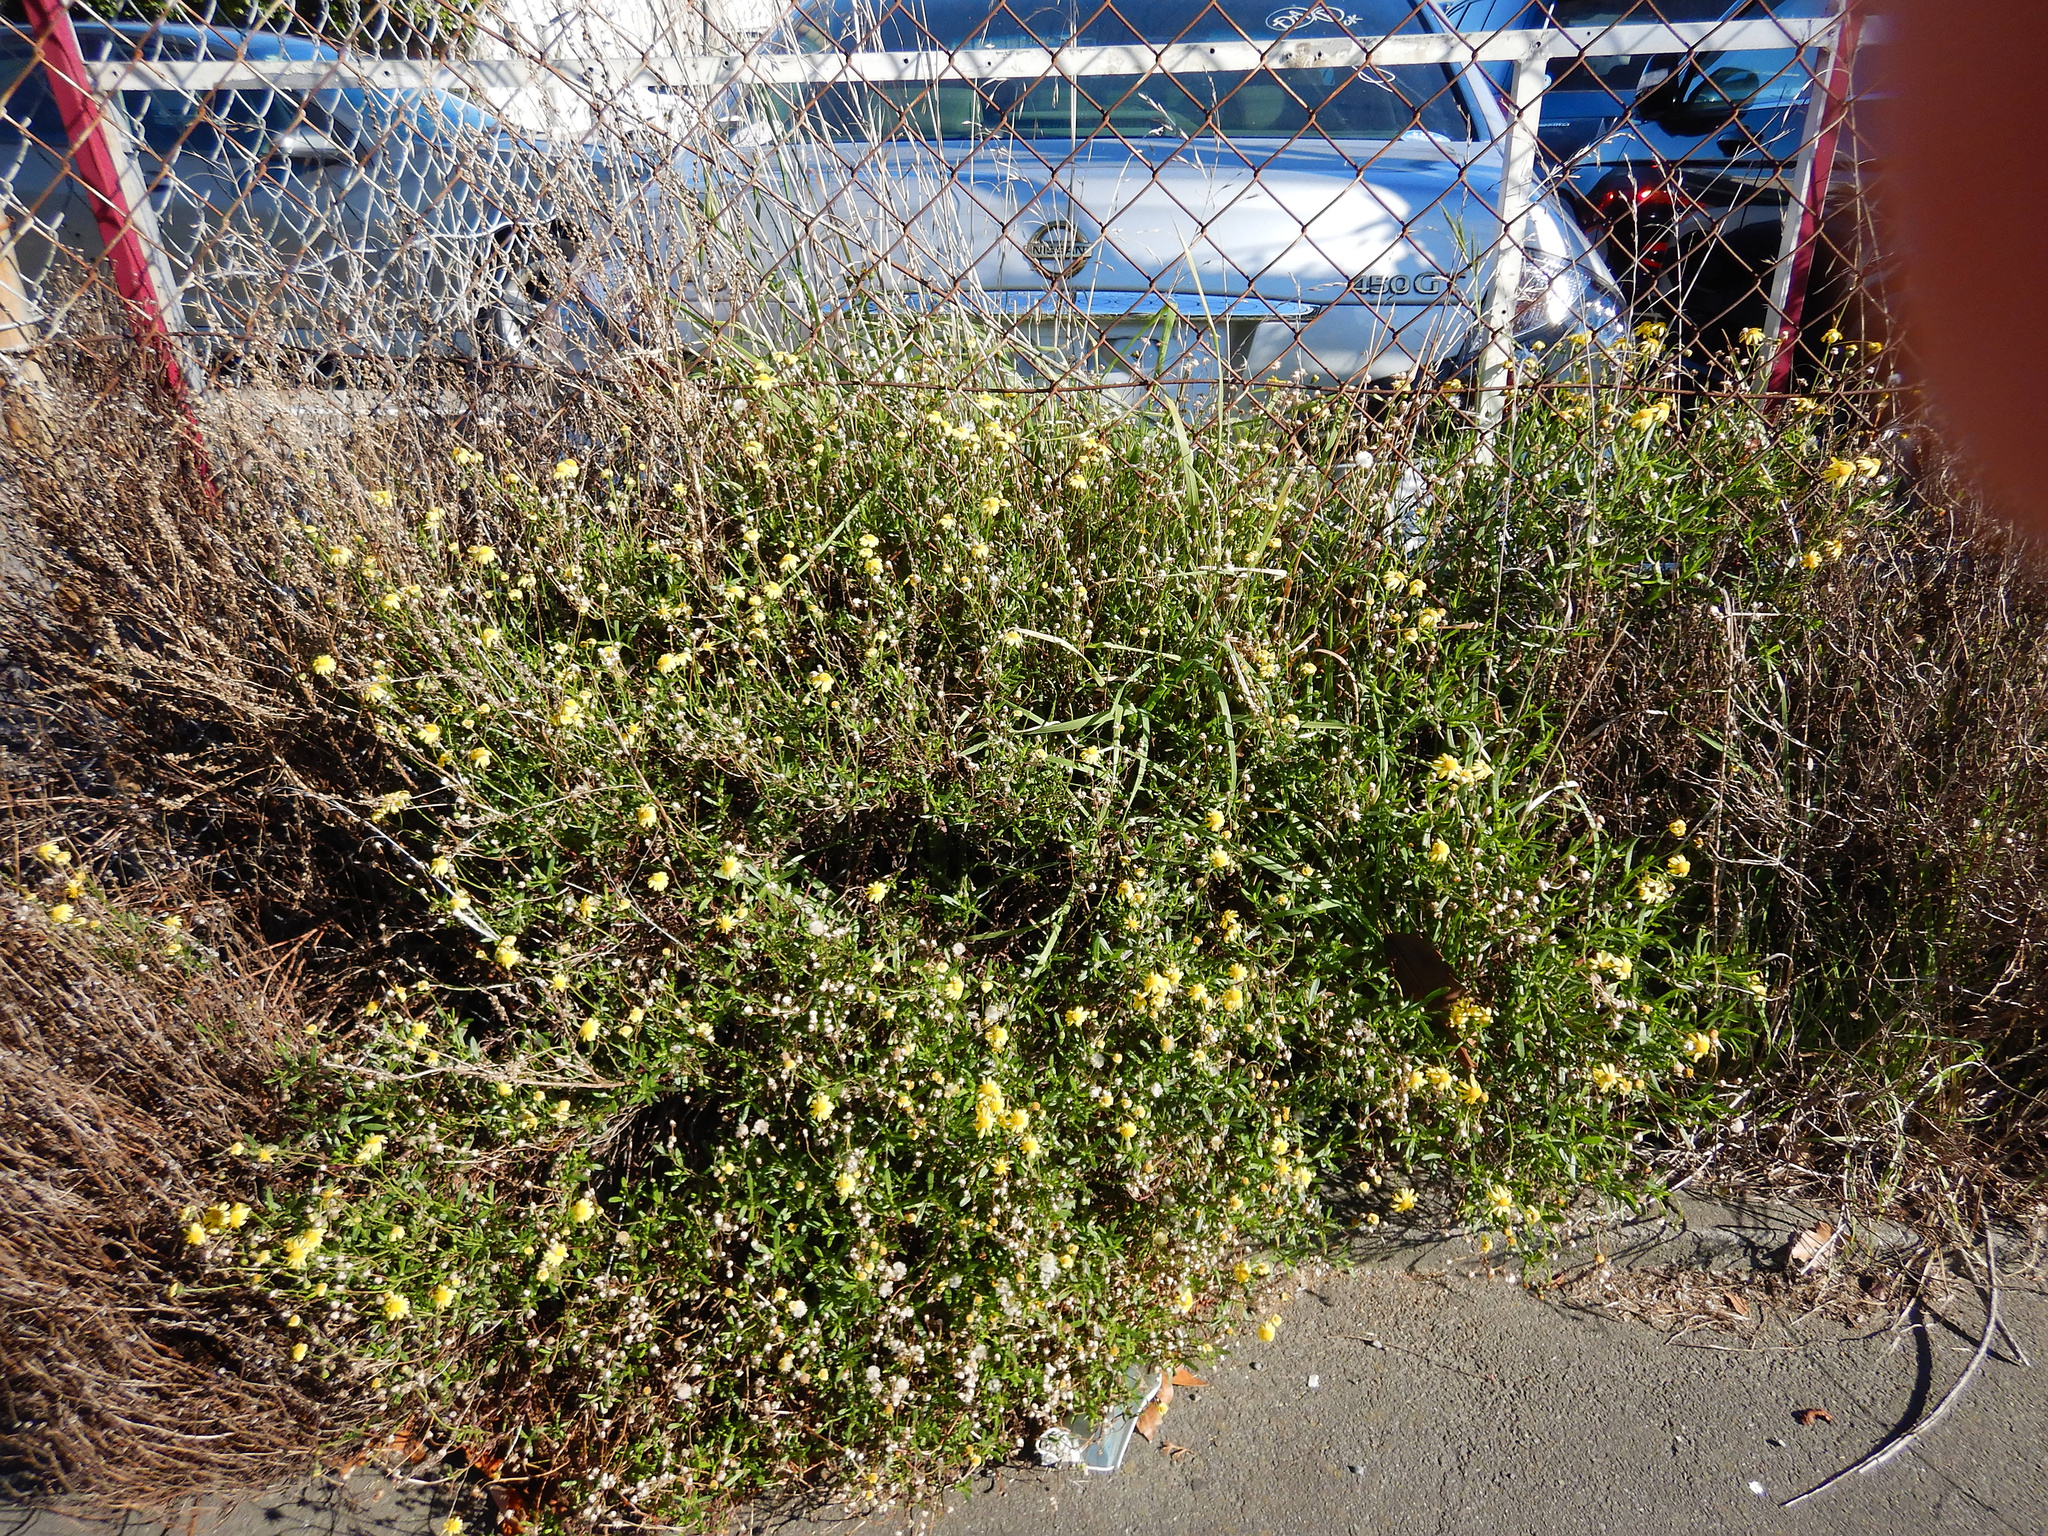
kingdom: Plantae
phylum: Tracheophyta
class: Magnoliopsida
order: Asterales
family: Asteraceae
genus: Senecio
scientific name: Senecio skirrhodon
